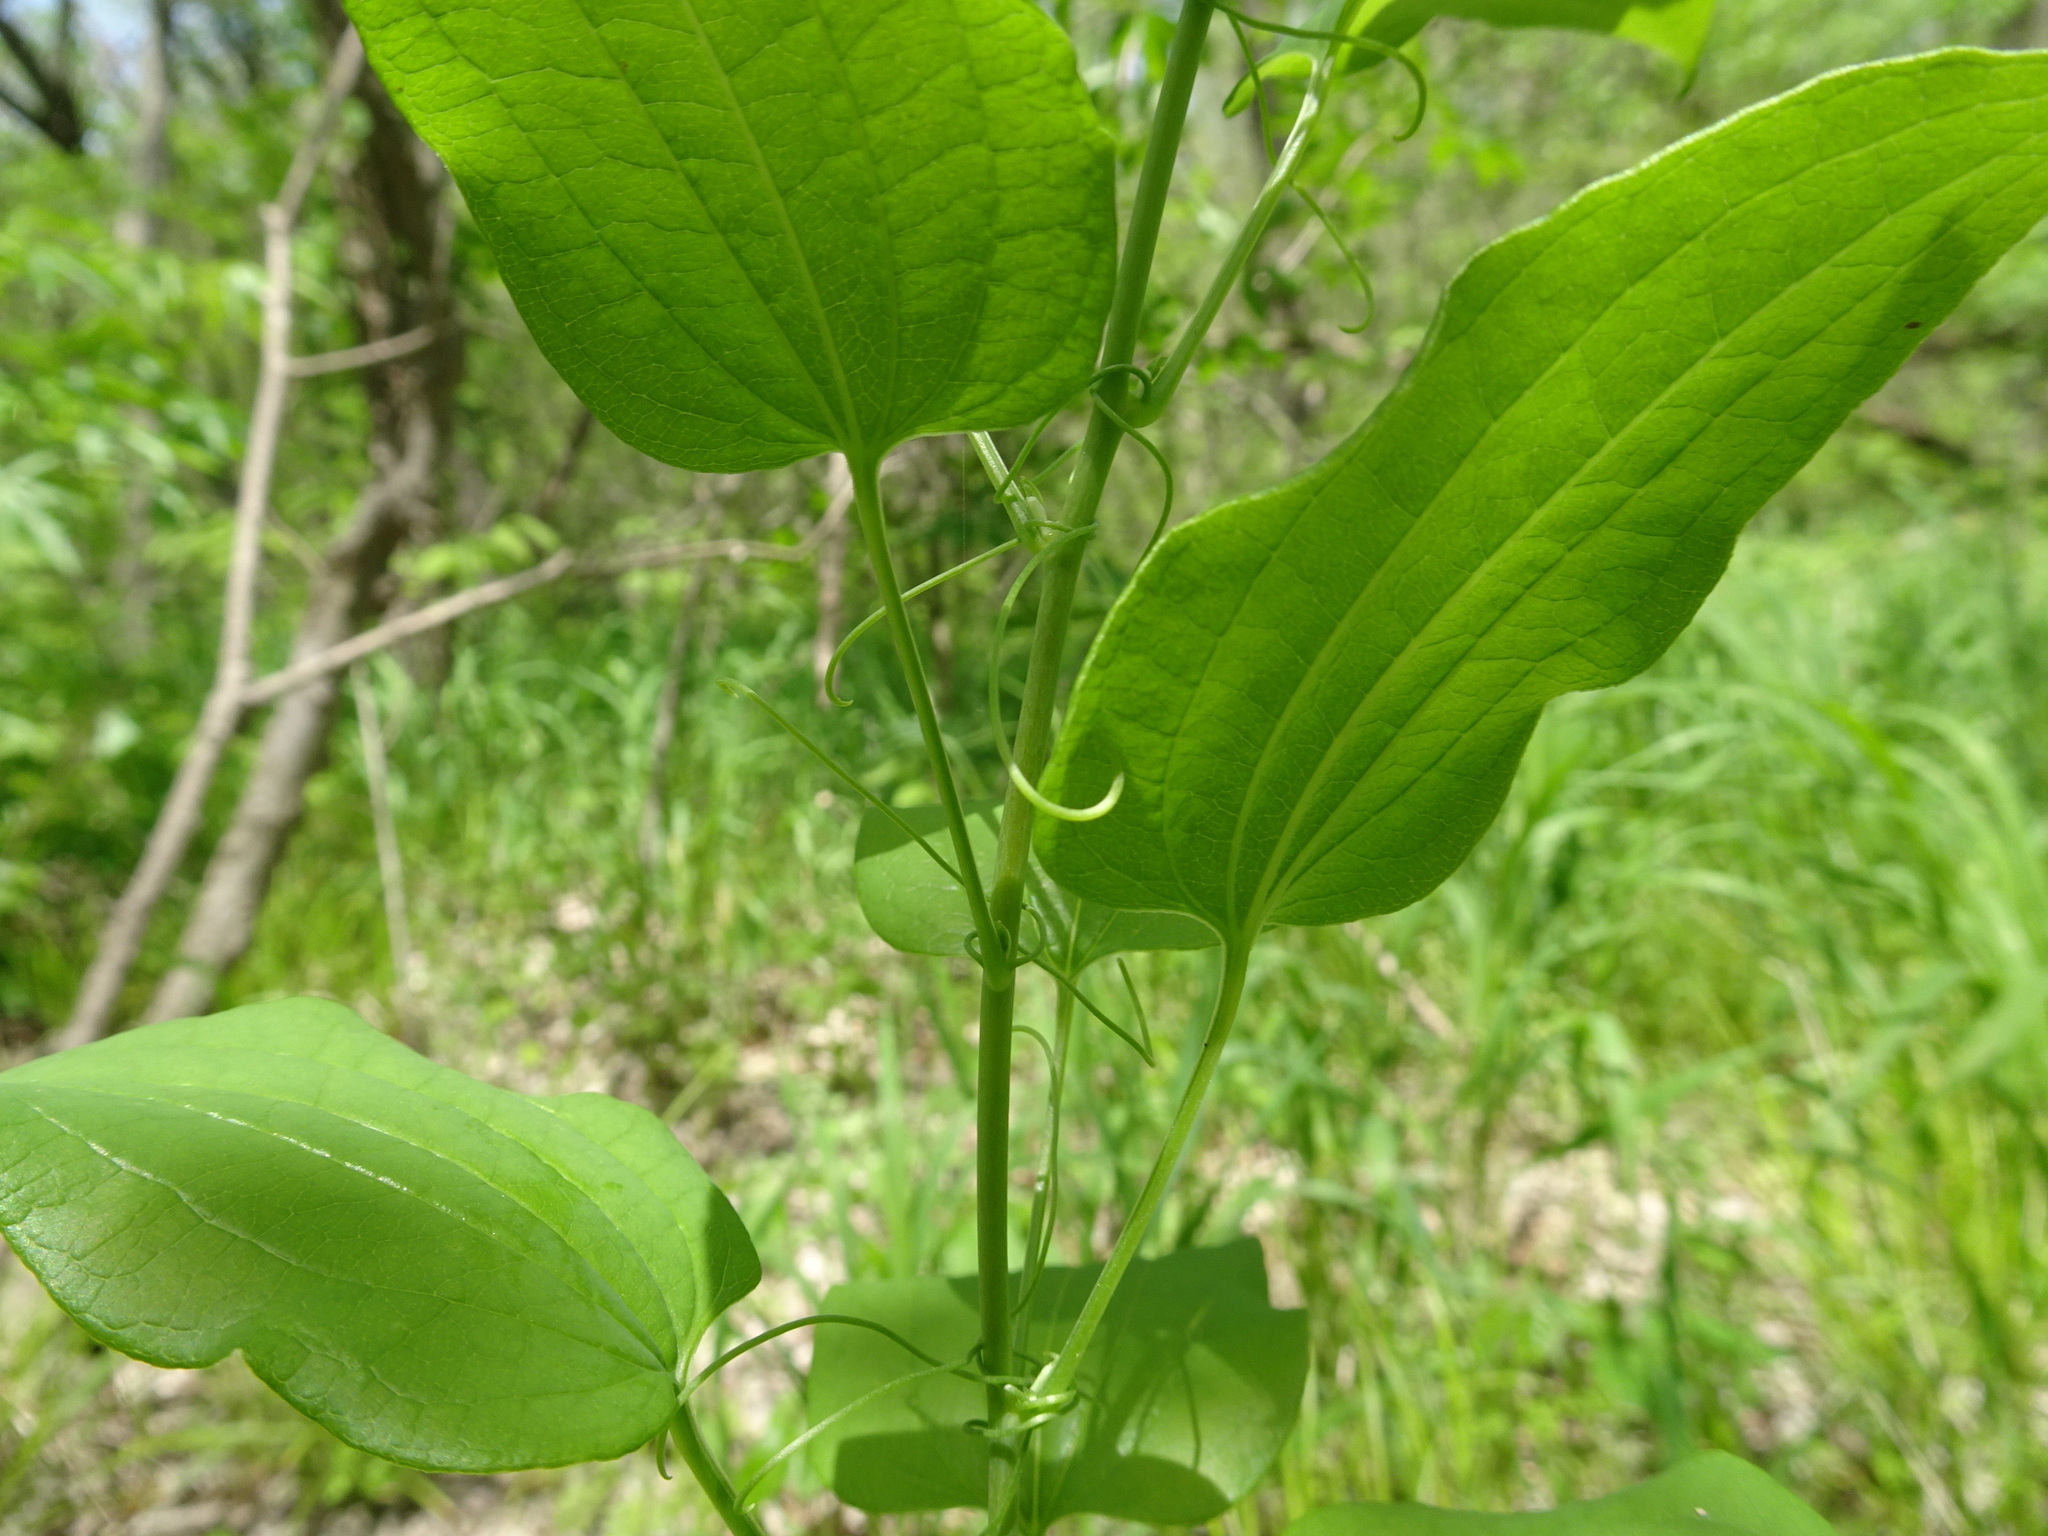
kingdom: Plantae
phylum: Tracheophyta
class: Liliopsida
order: Liliales
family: Smilacaceae
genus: Smilax
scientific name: Smilax lasioneura
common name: Blue ridge carrionflower
